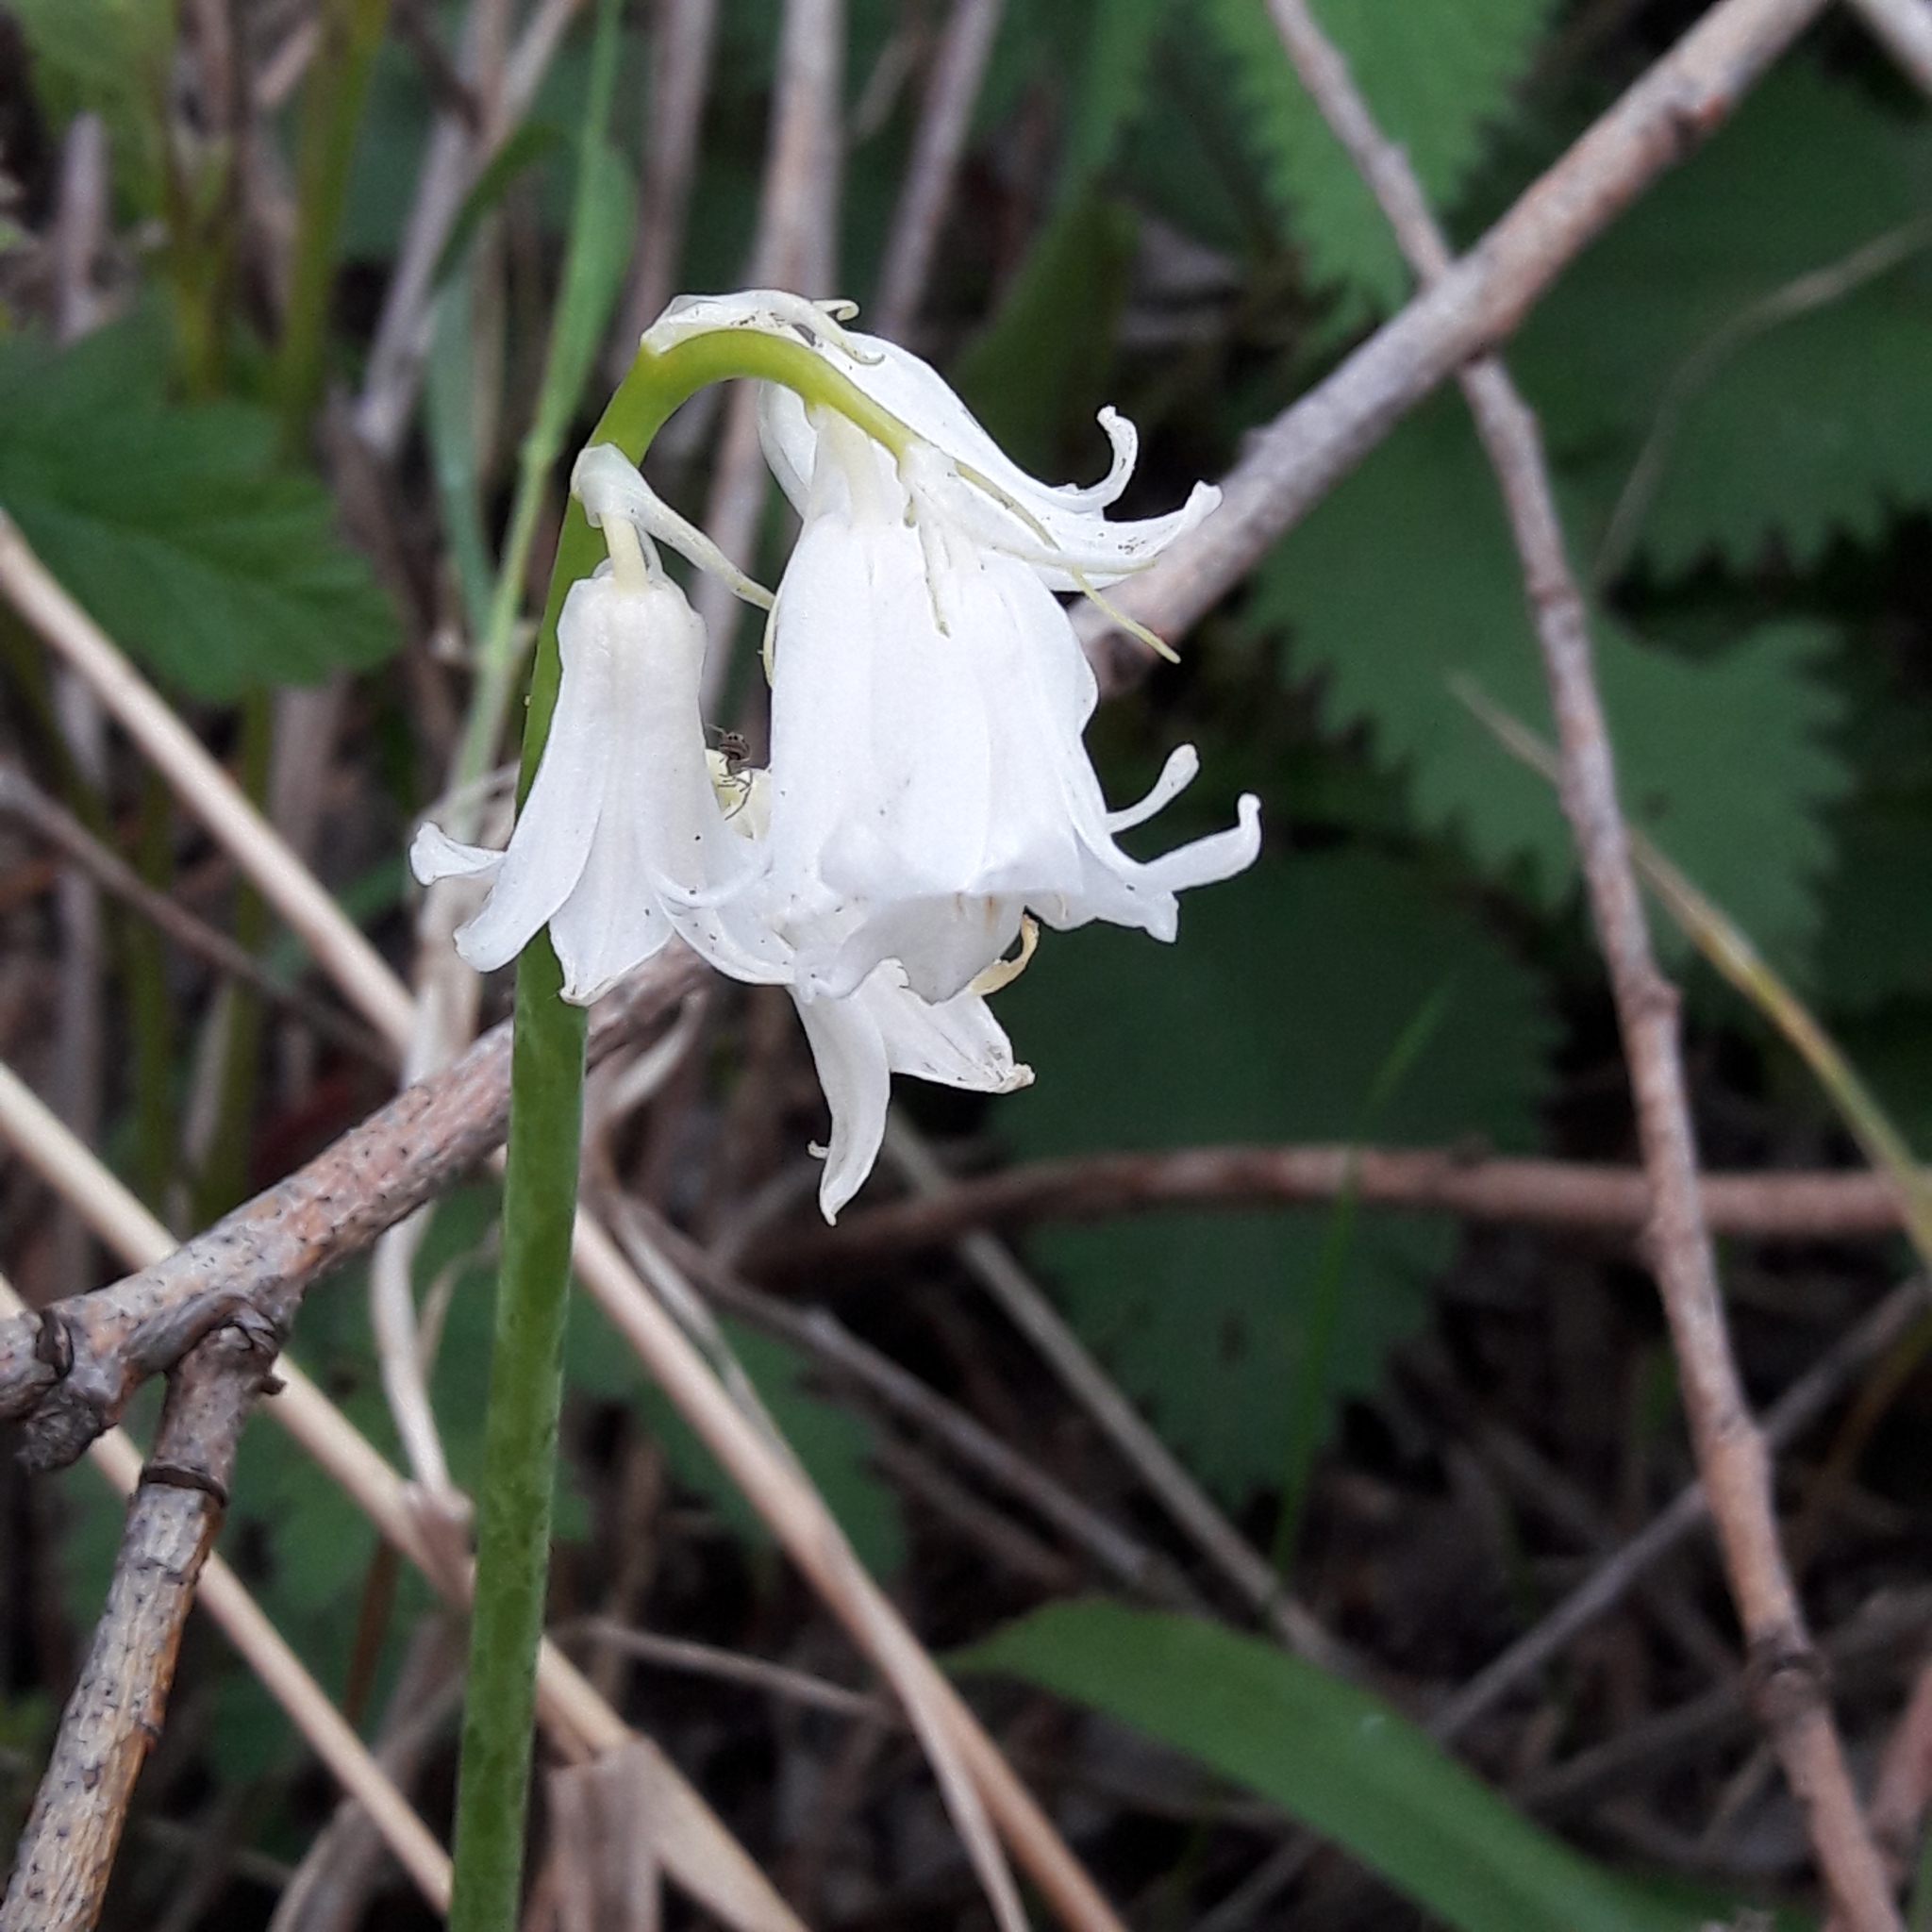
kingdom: Plantae
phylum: Tracheophyta
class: Liliopsida
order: Asparagales
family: Asparagaceae
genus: Hyacinthoides
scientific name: Hyacinthoides massartiana
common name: Hyacinthoides
